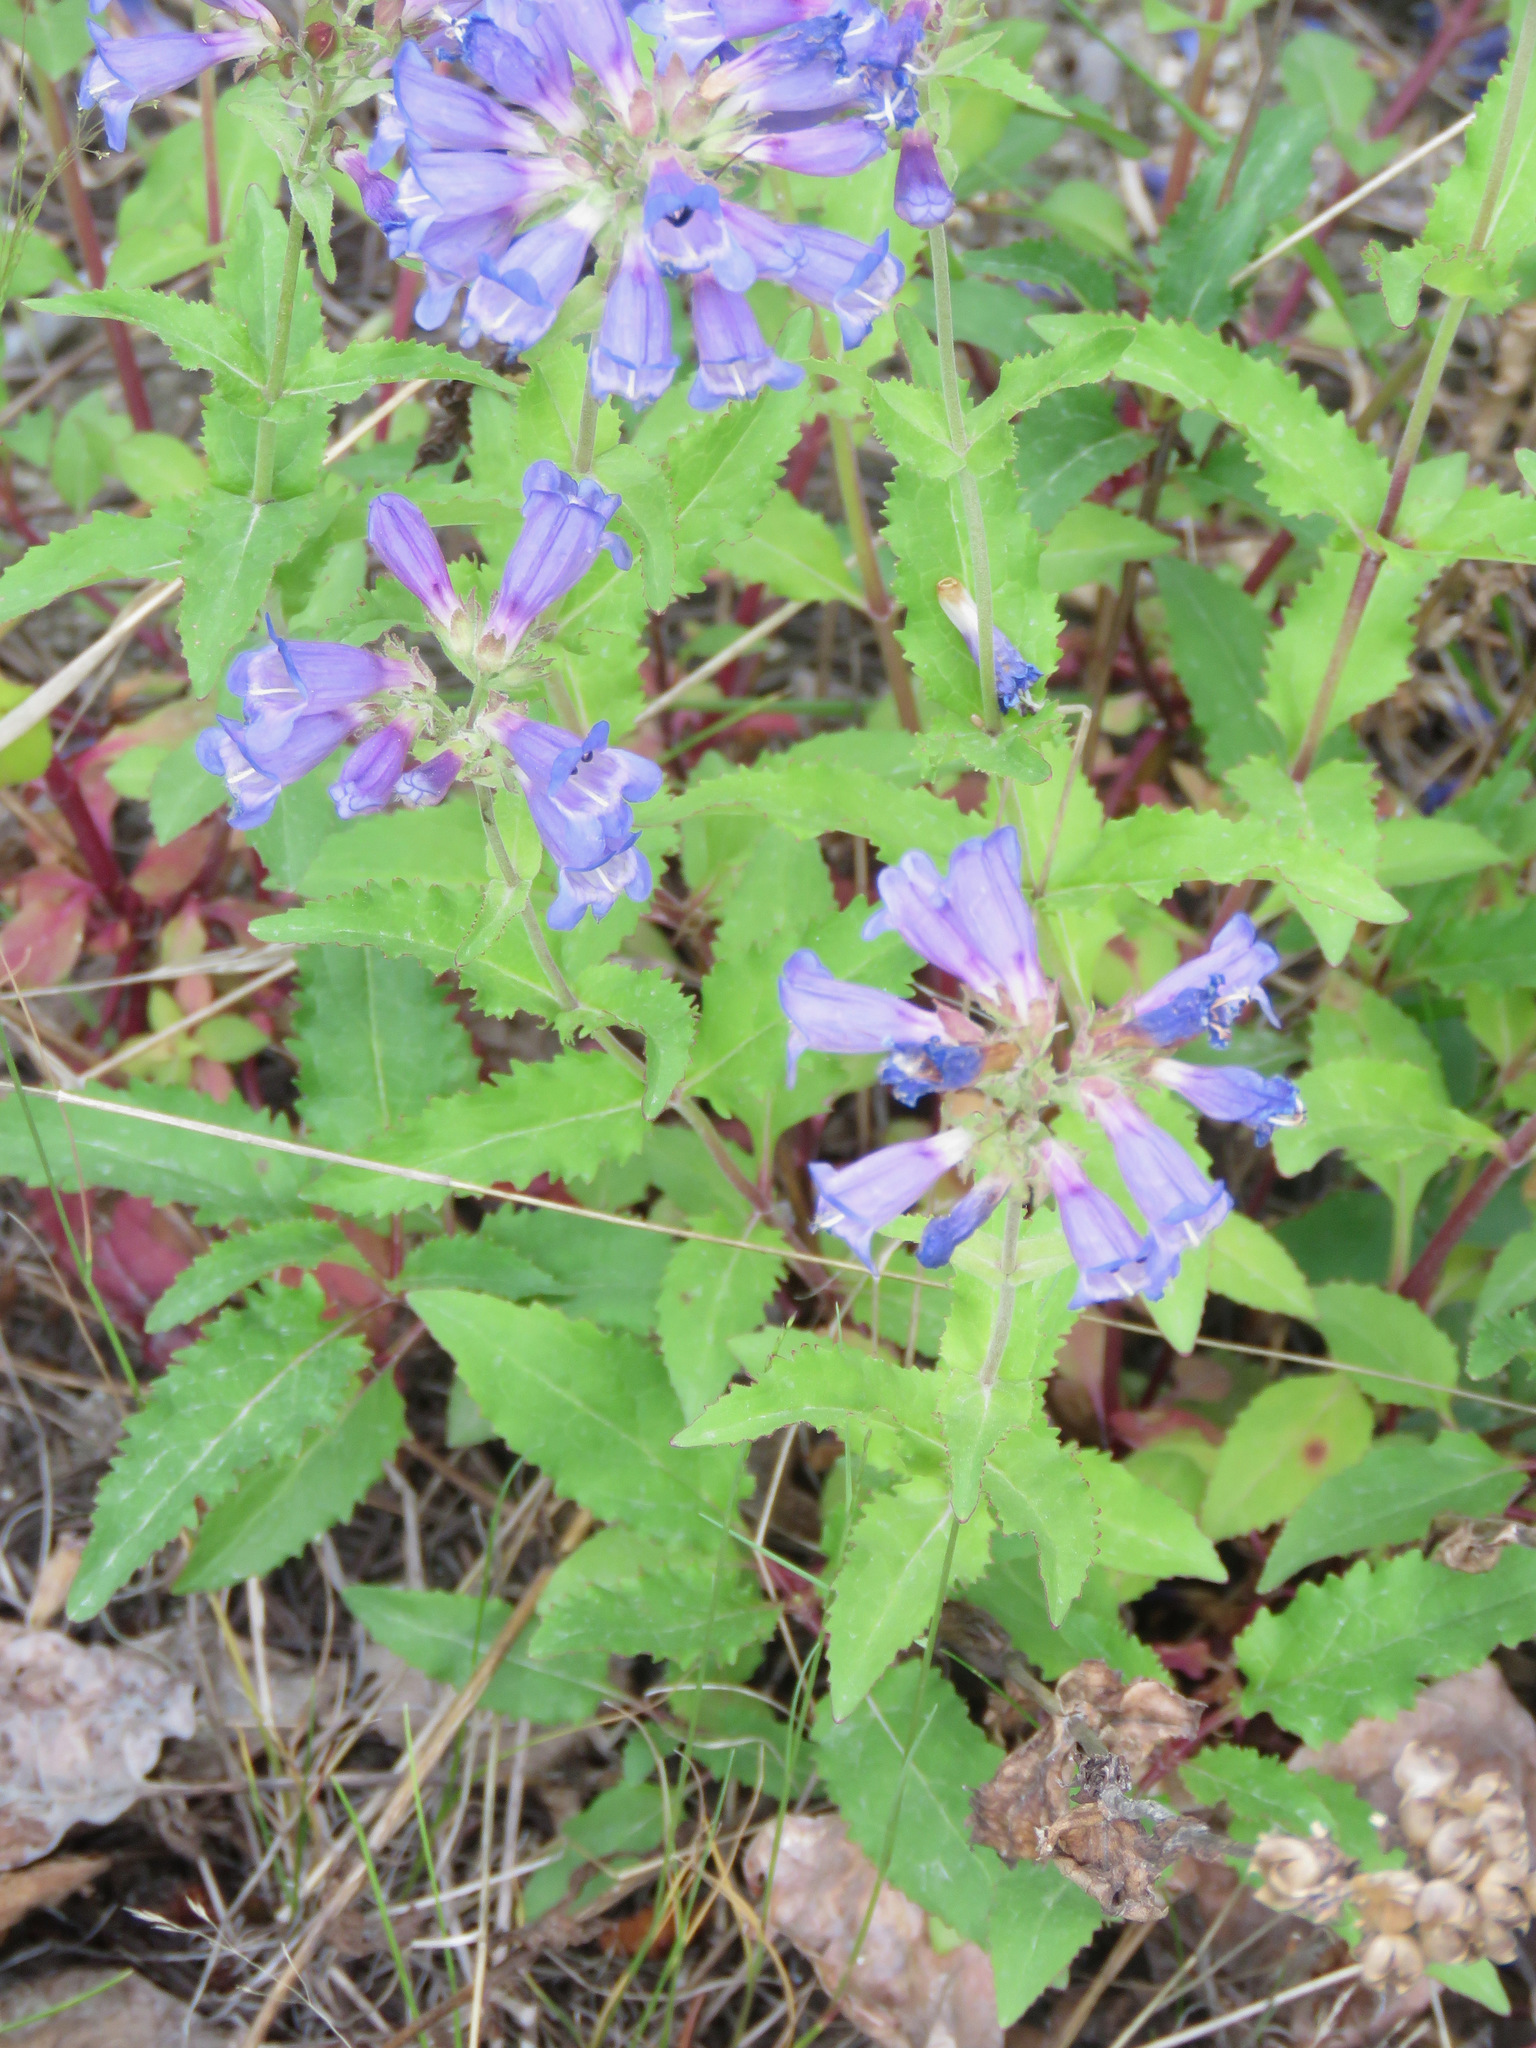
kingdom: Plantae
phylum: Tracheophyta
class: Magnoliopsida
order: Lamiales
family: Plantaginaceae
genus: Penstemon
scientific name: Penstemon serrulatus
